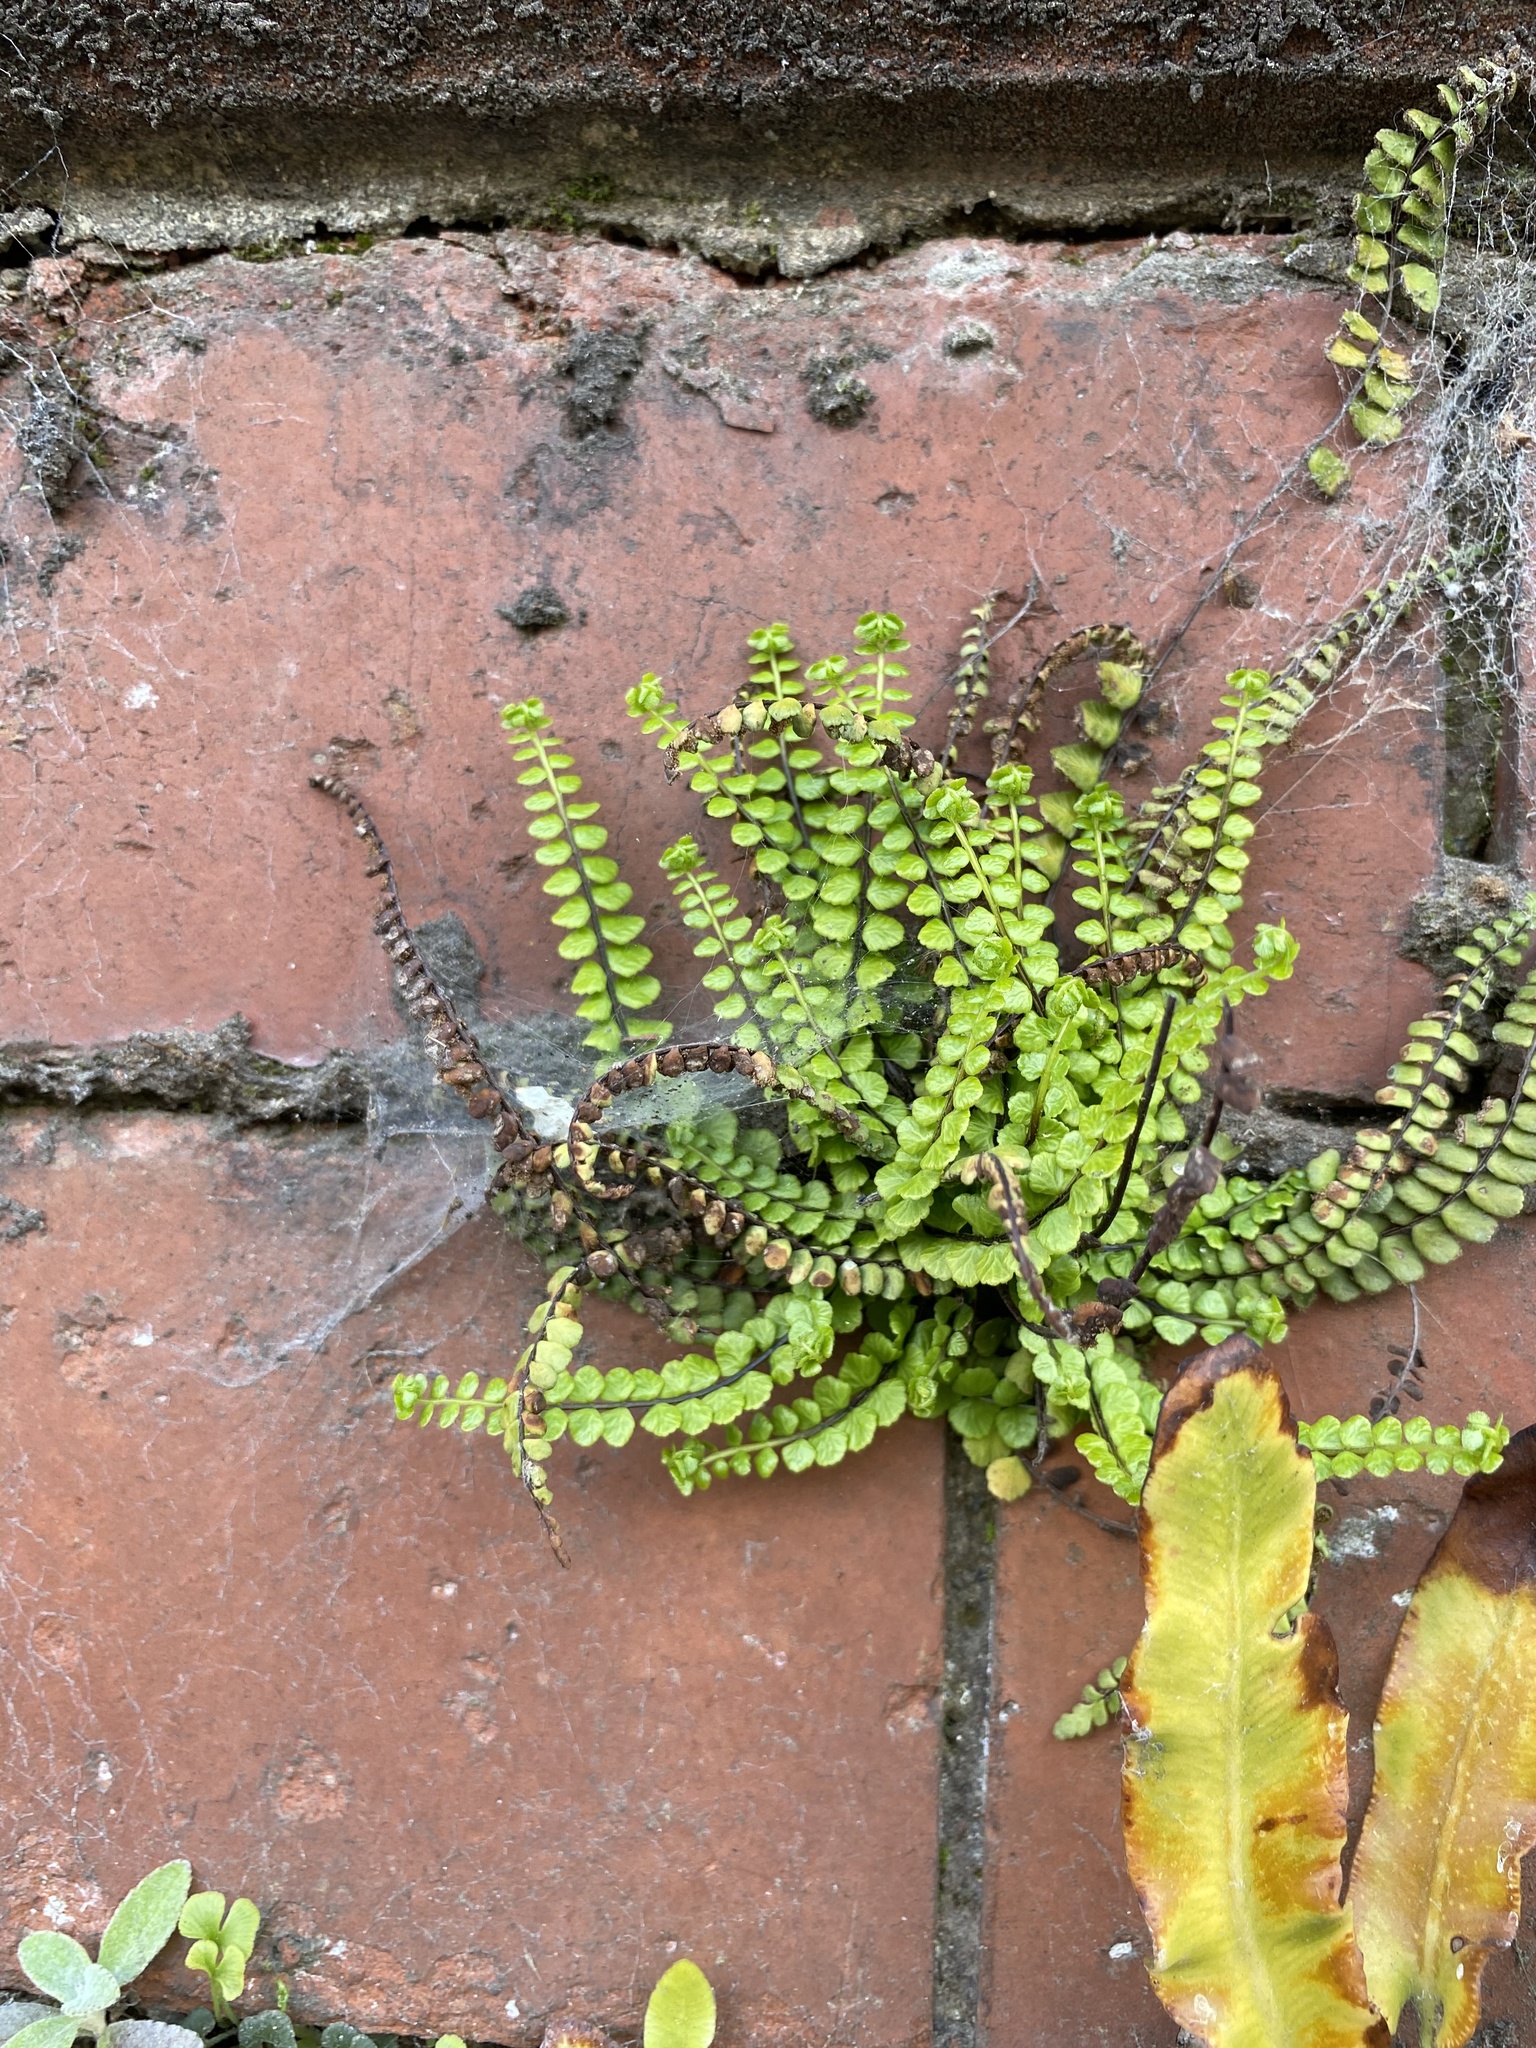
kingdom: Plantae
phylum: Tracheophyta
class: Polypodiopsida
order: Polypodiales
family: Aspleniaceae
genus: Asplenium
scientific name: Asplenium trichomanes
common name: Maidenhair spleenwort
